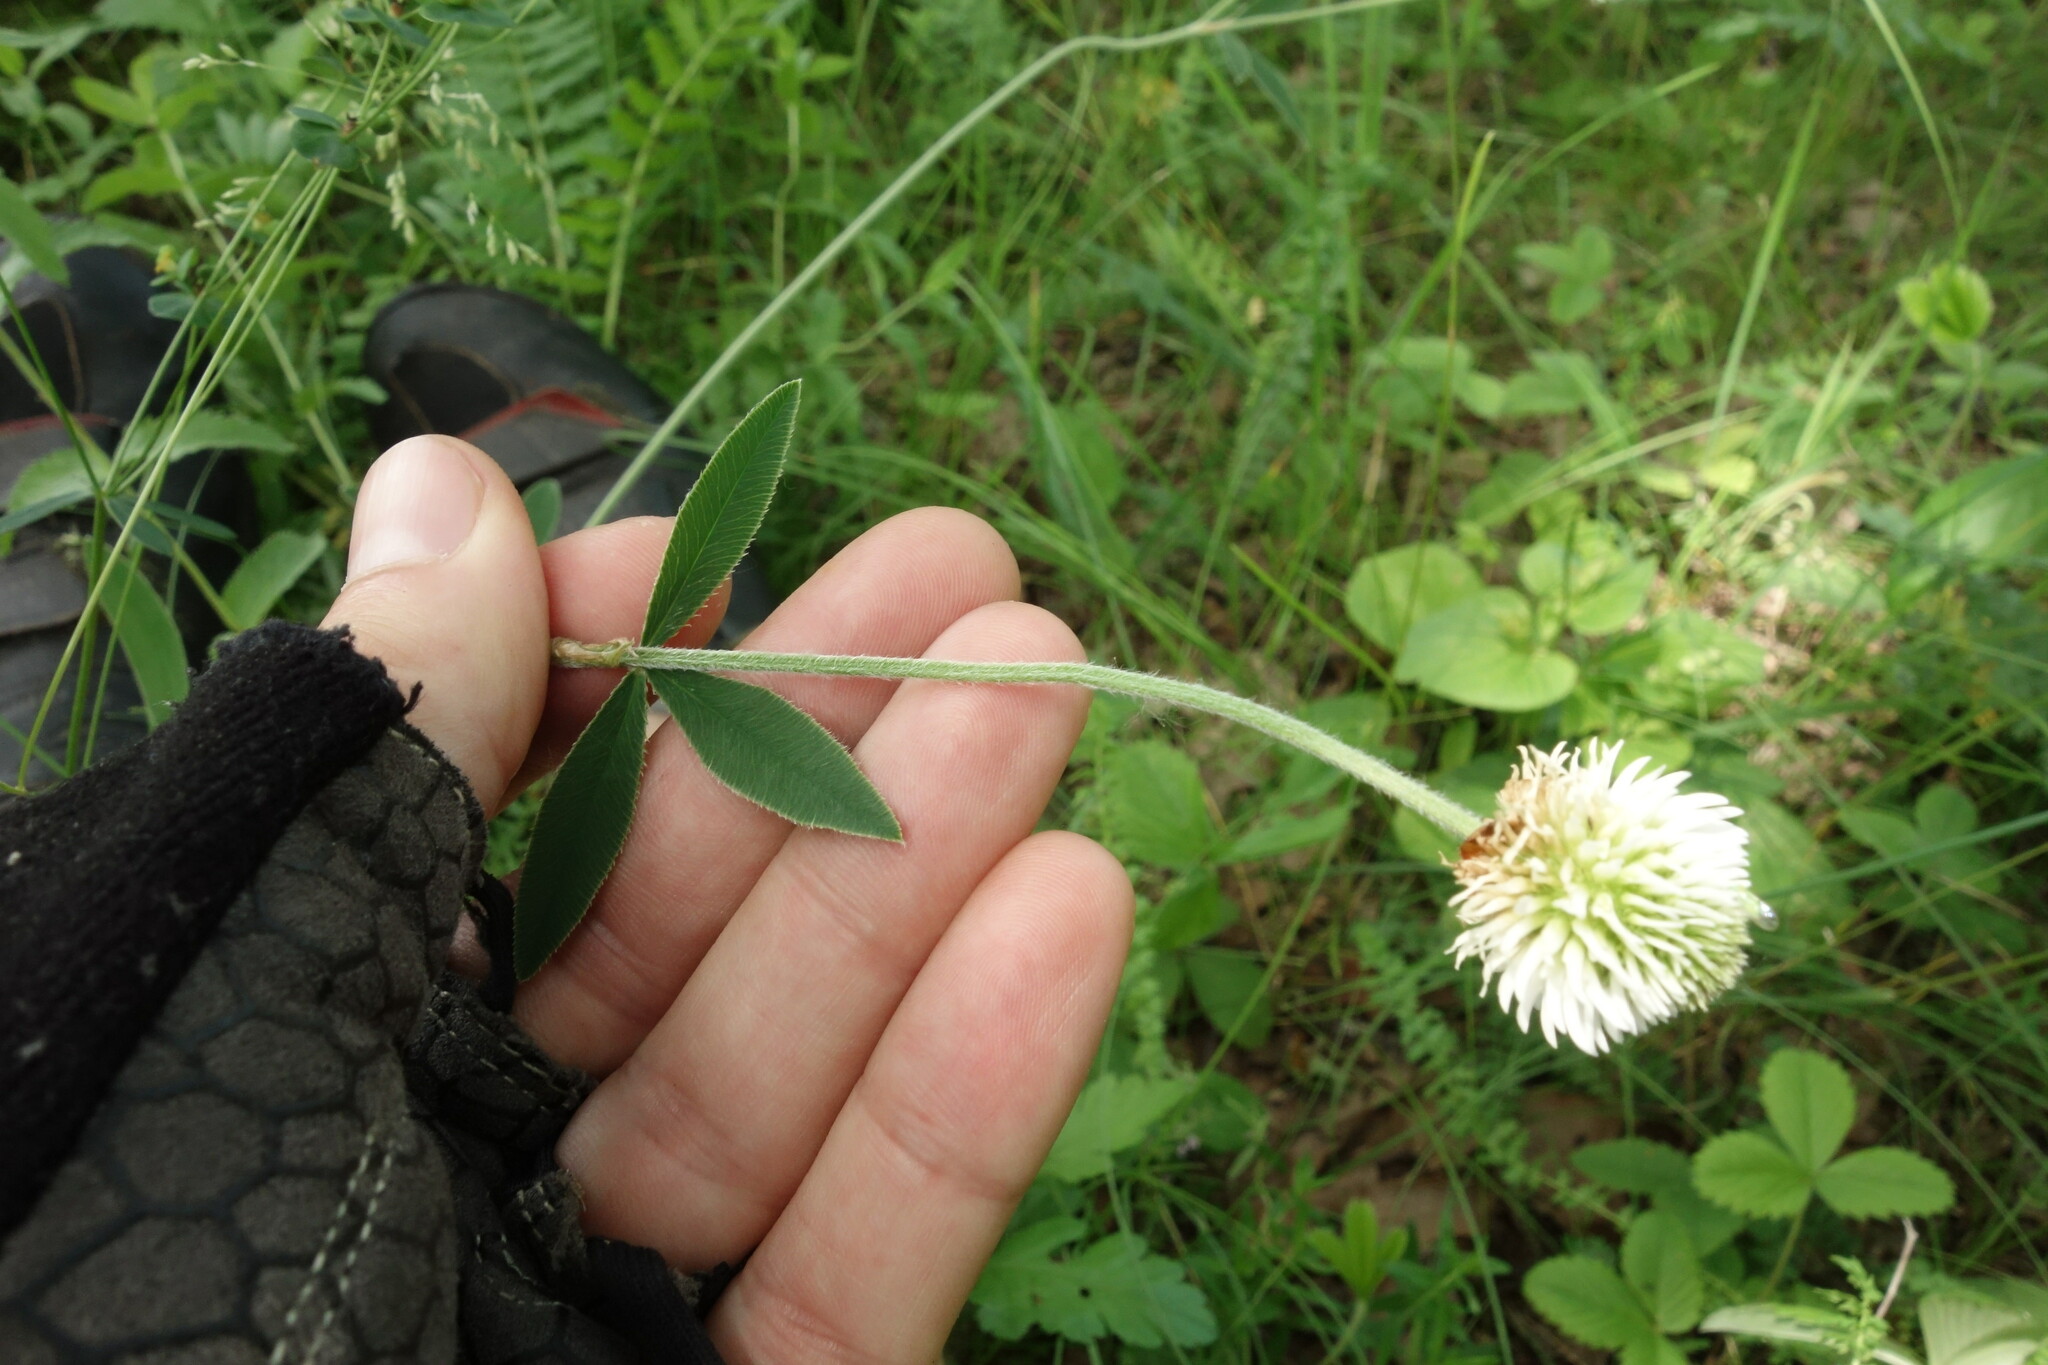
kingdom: Plantae
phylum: Tracheophyta
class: Magnoliopsida
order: Fabales
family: Fabaceae
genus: Trifolium
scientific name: Trifolium montanum
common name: Mountain clover
